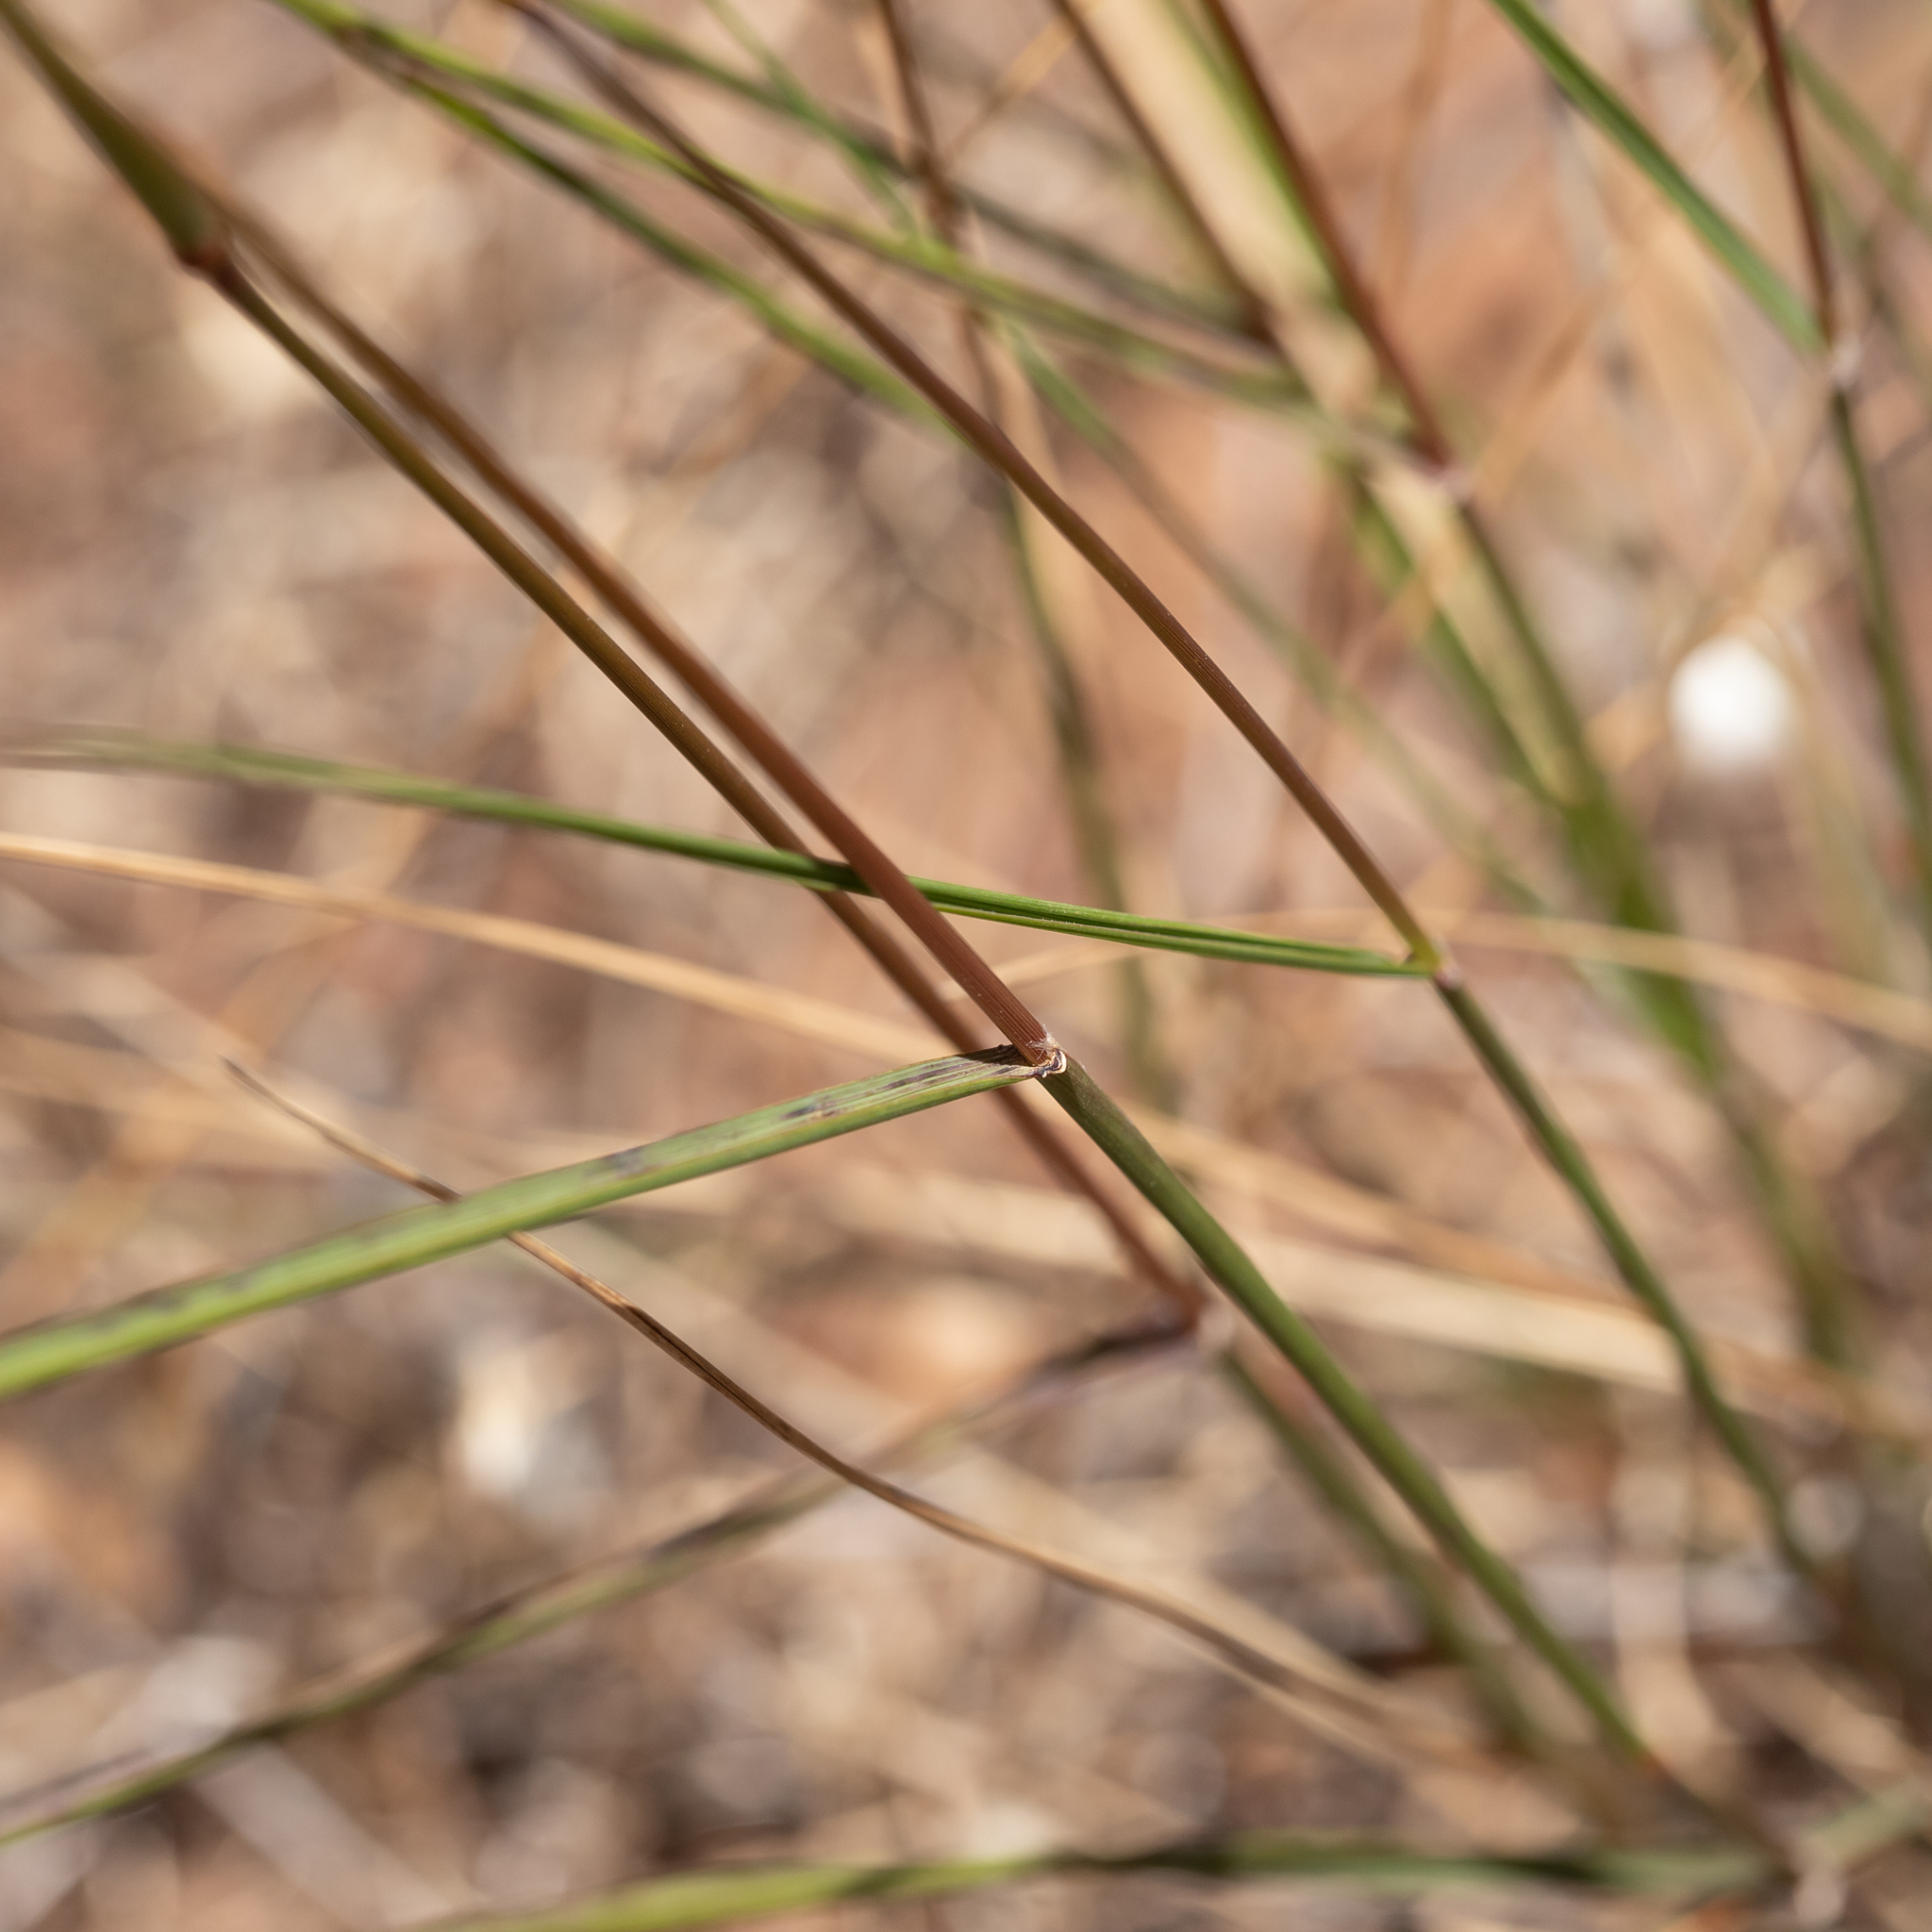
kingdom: Plantae
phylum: Tracheophyta
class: Liliopsida
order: Poales
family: Poaceae
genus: Austrostipa
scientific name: Austrostipa nodosa
